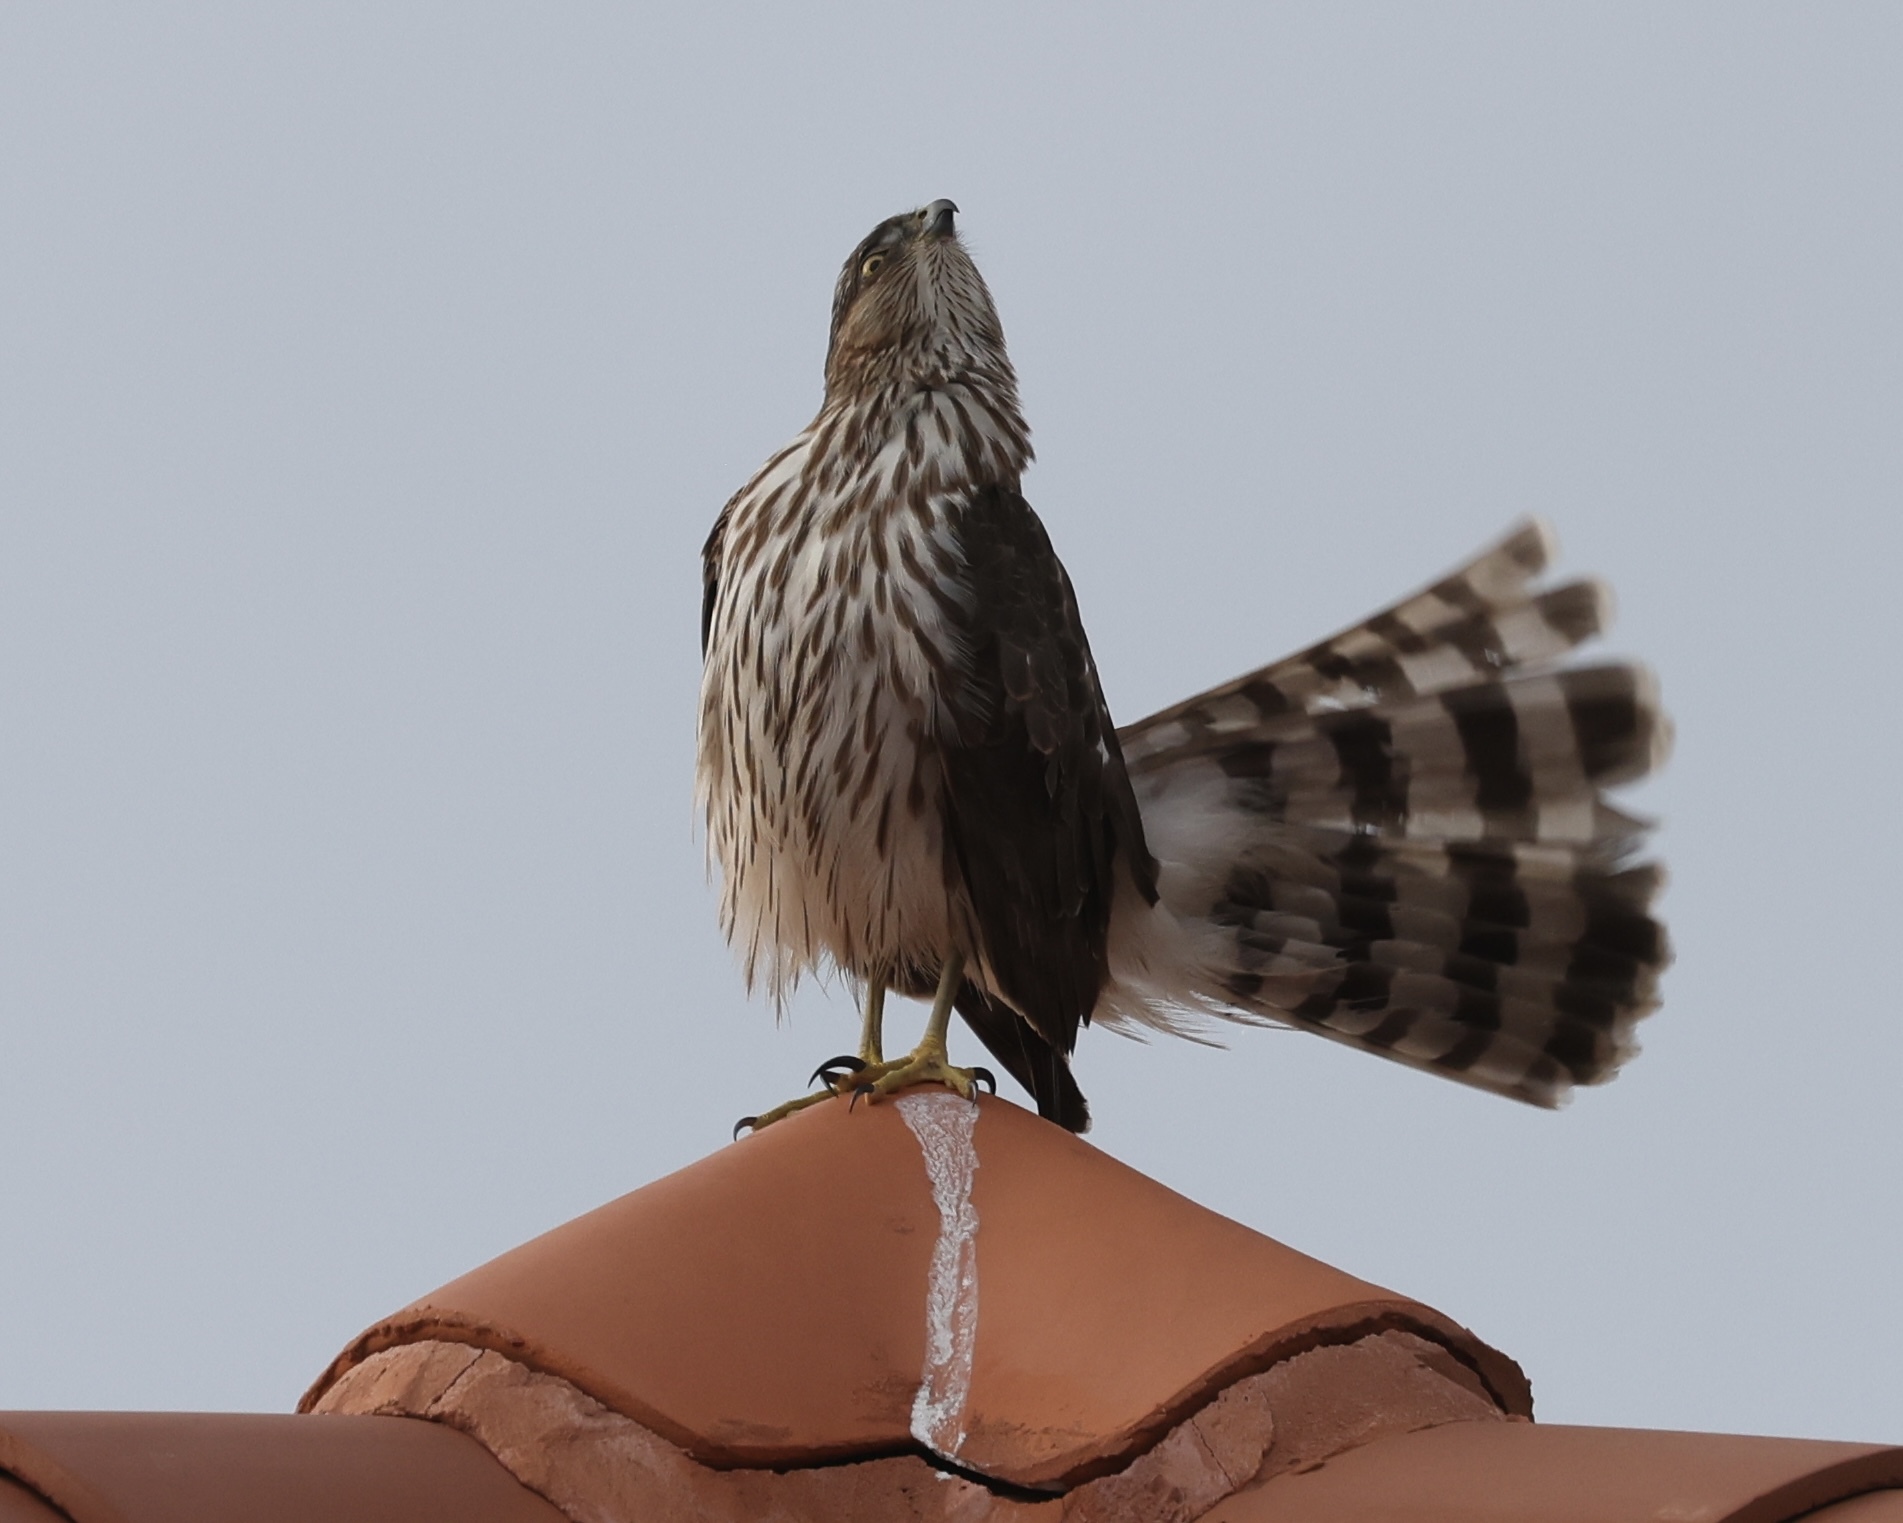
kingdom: Animalia
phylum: Chordata
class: Aves
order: Accipitriformes
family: Accipitridae
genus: Accipiter
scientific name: Accipiter cooperii
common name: Cooper's hawk
